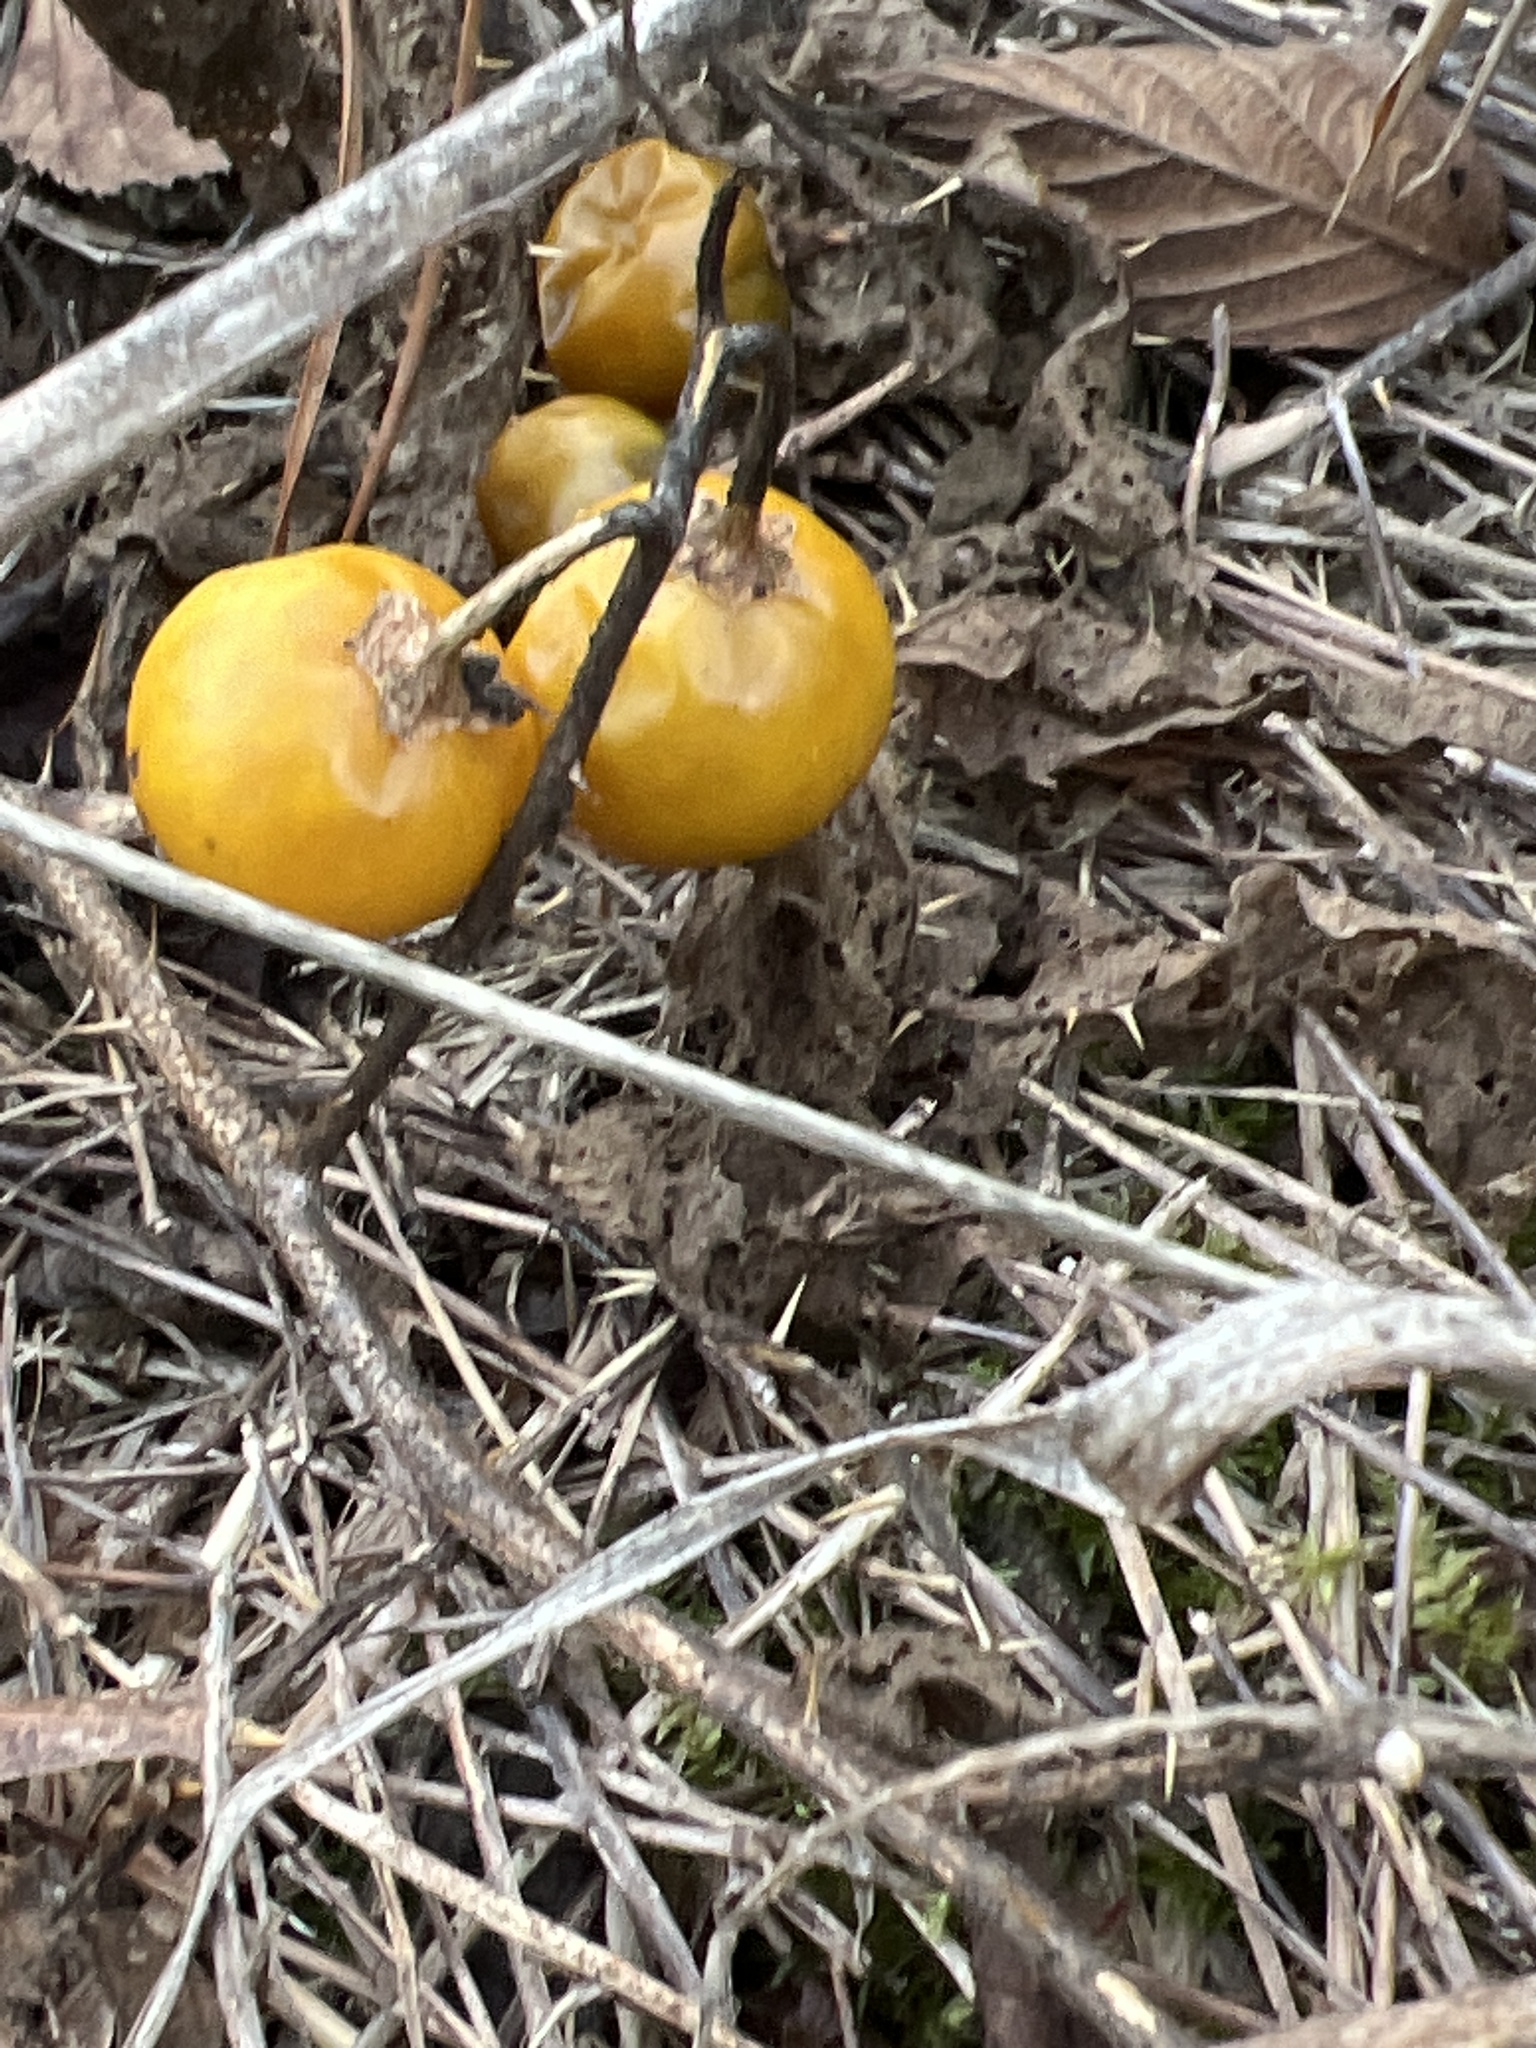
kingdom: Plantae
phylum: Tracheophyta
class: Magnoliopsida
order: Solanales
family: Solanaceae
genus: Solanum
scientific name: Solanum carolinense
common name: Horse-nettle
